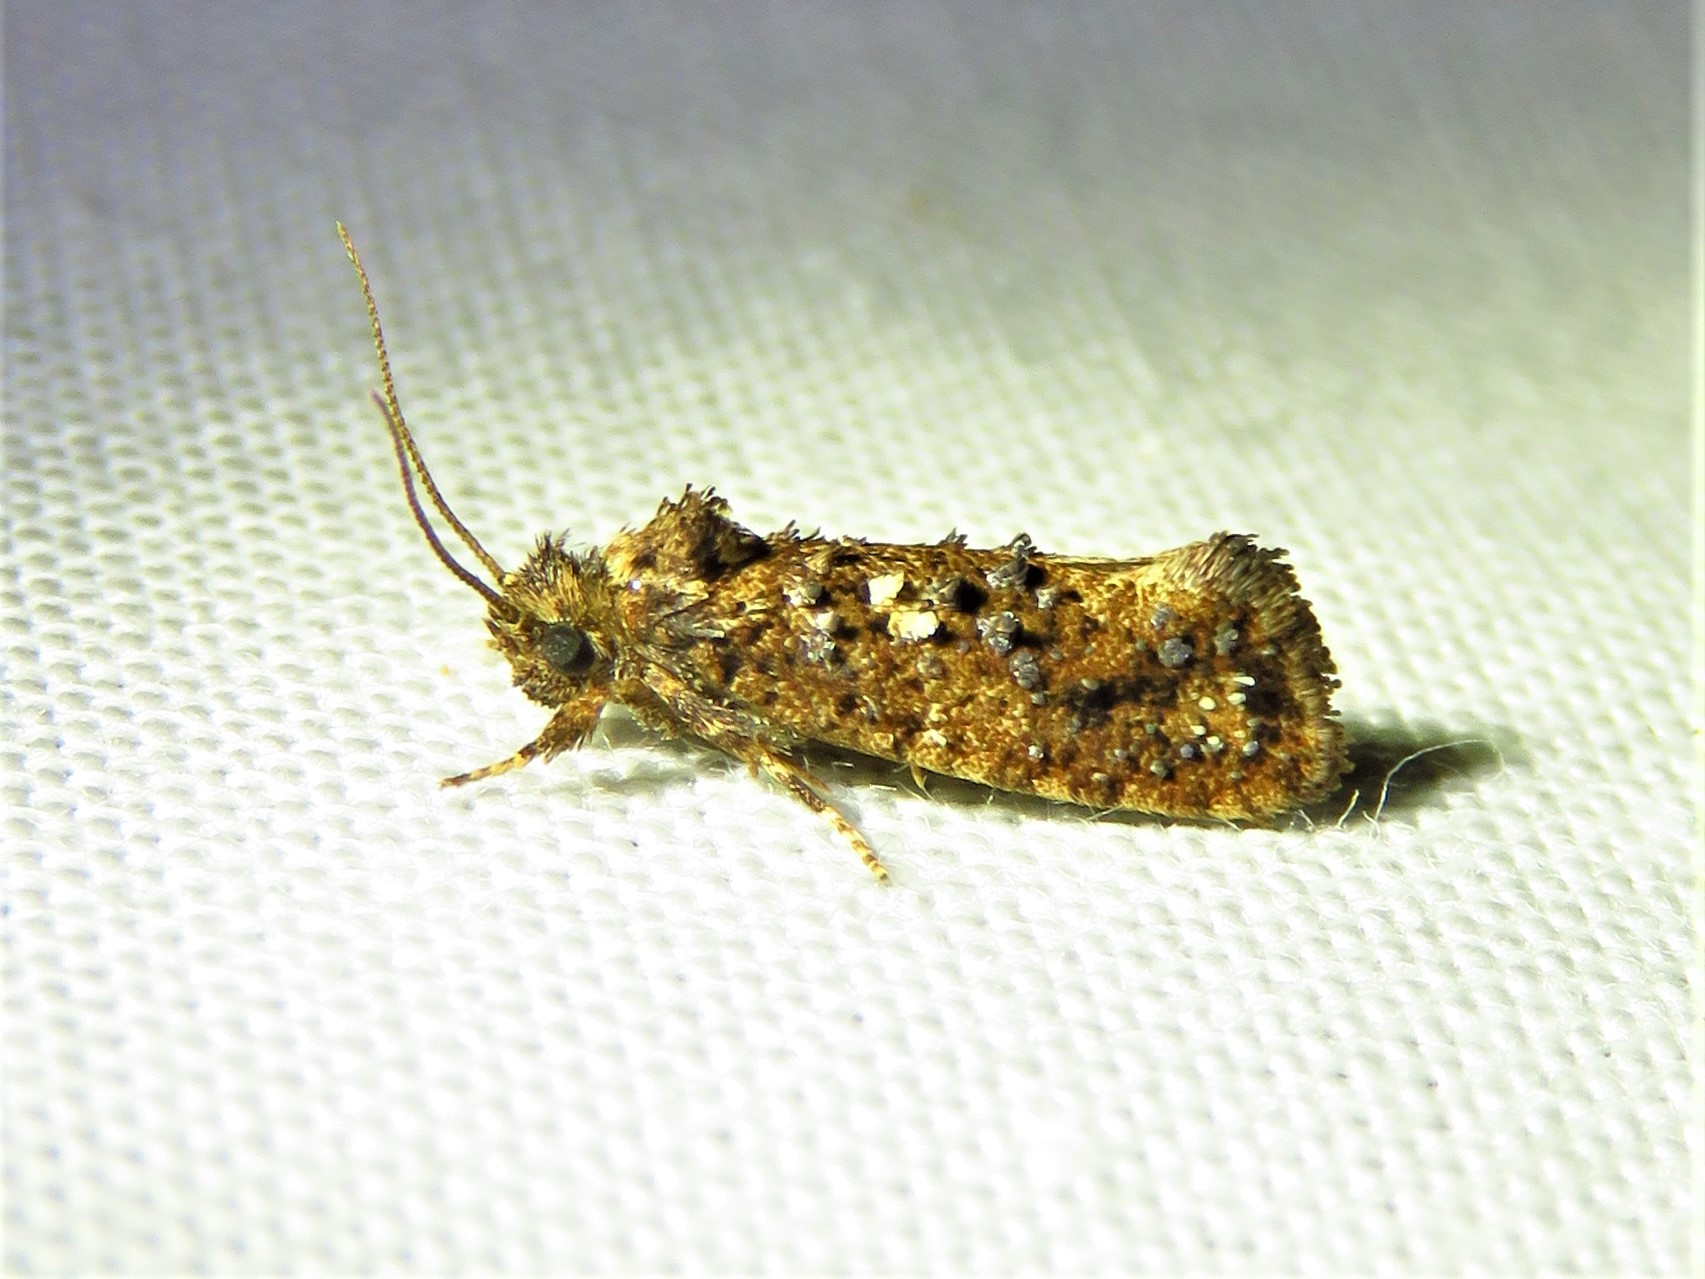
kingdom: Animalia
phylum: Arthropoda
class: Insecta
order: Lepidoptera
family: Tineidae
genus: Acrolophus
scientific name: Acrolophus cressoni
